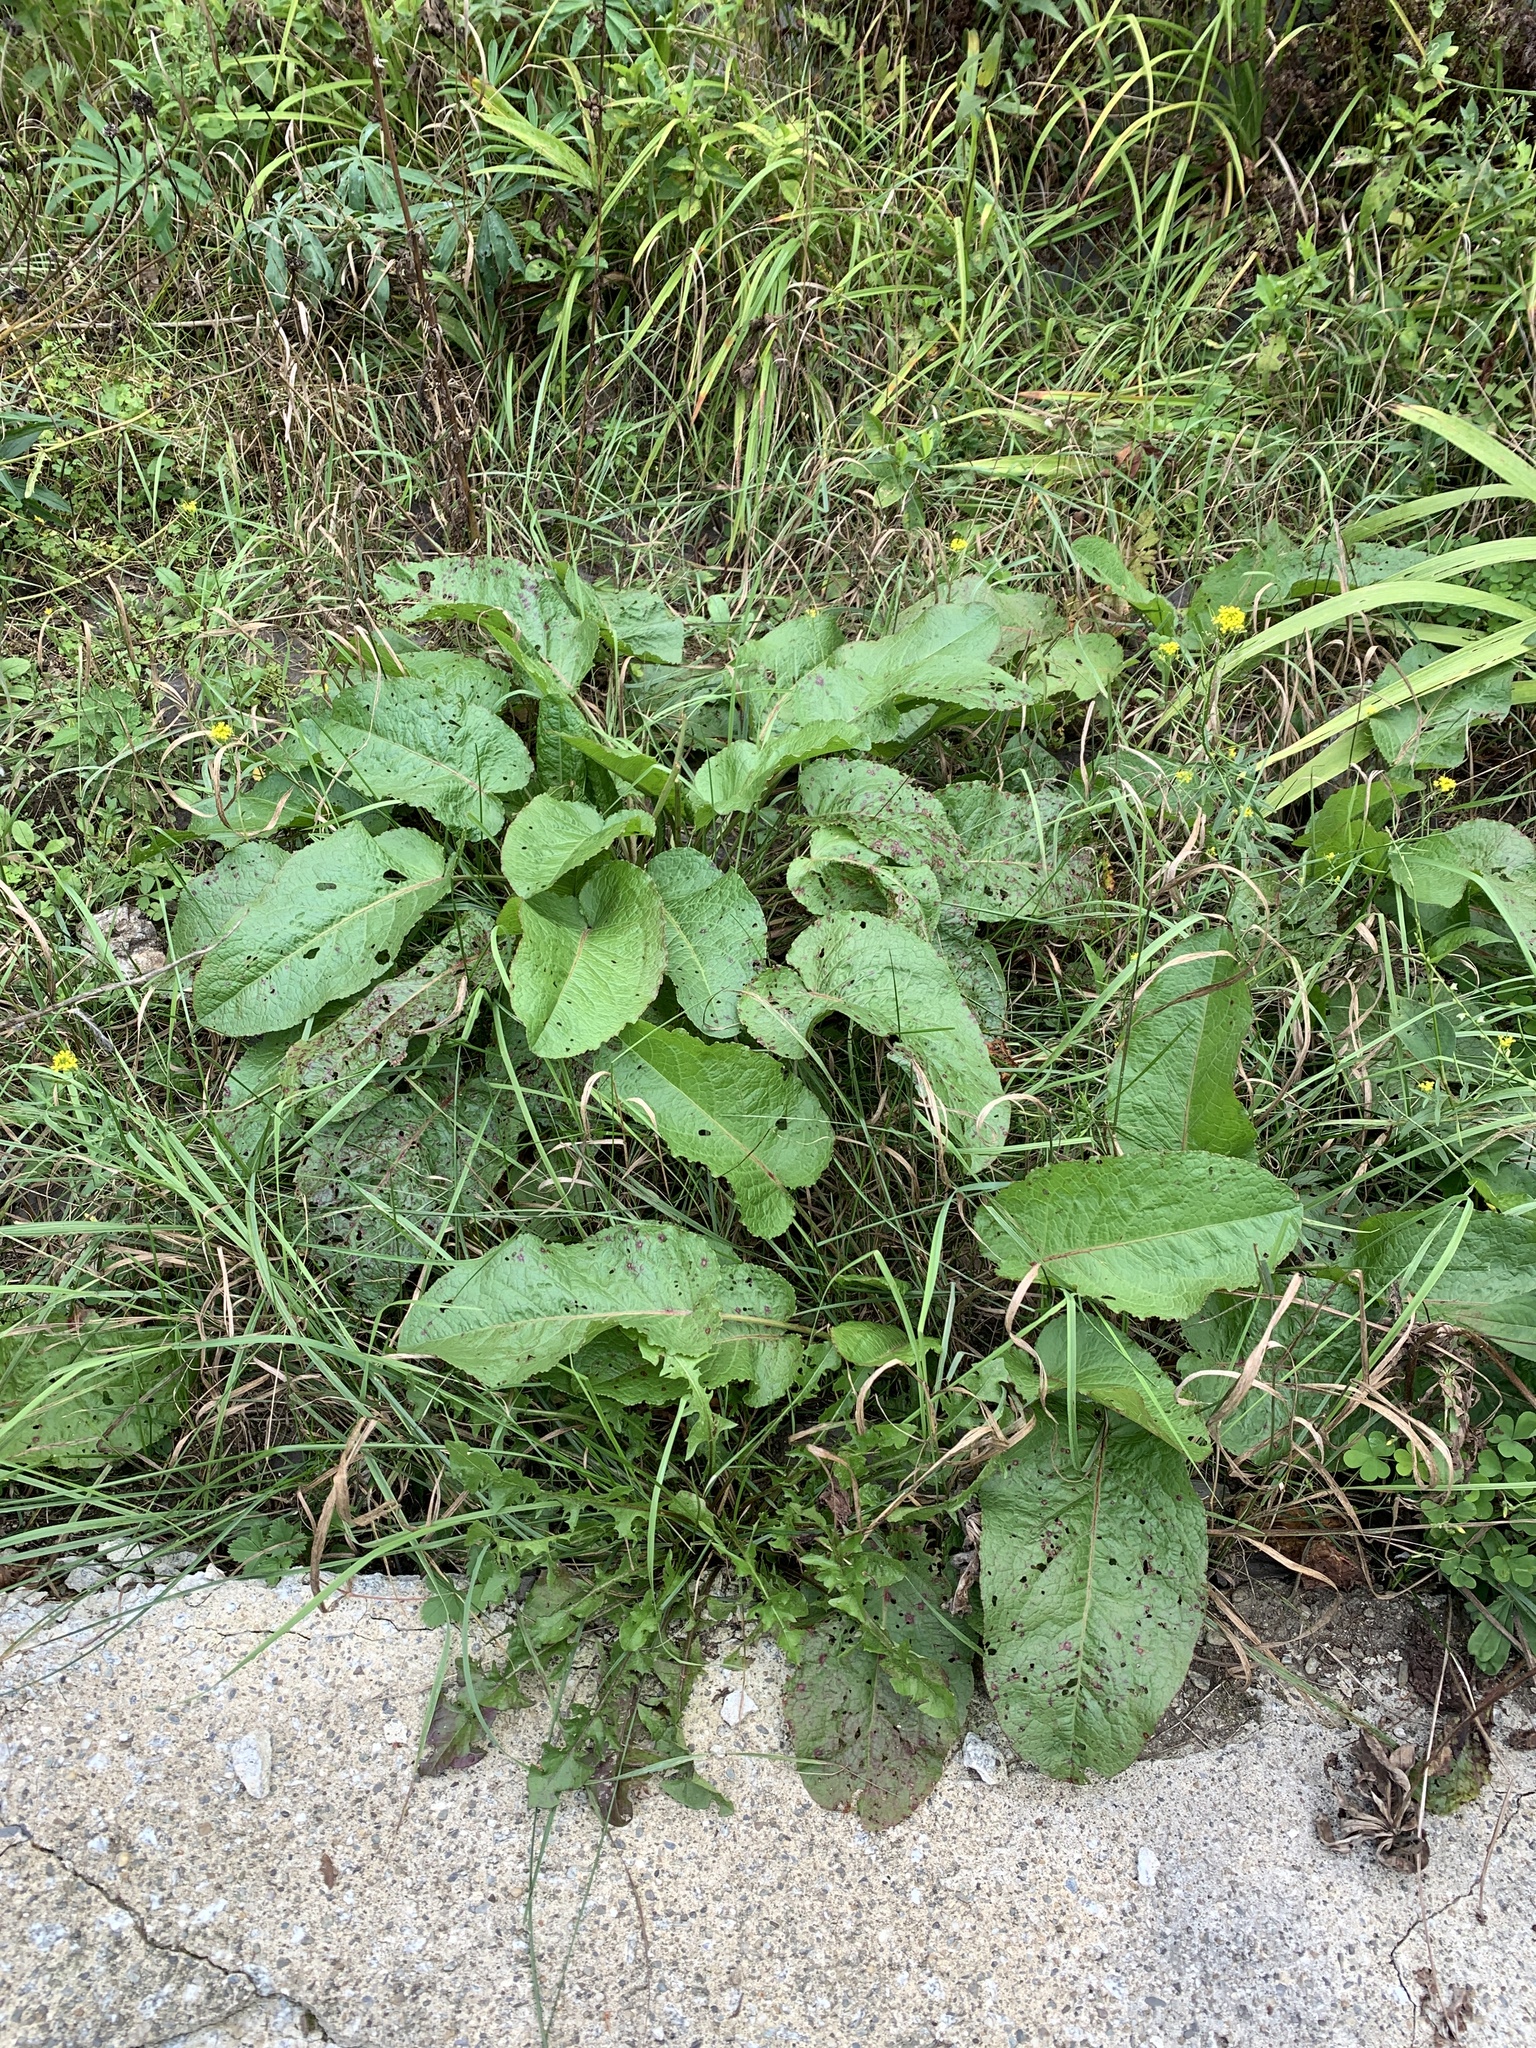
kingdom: Plantae
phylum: Tracheophyta
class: Magnoliopsida
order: Caryophyllales
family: Polygonaceae
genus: Rumex
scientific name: Rumex obtusifolius
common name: Bitter dock
